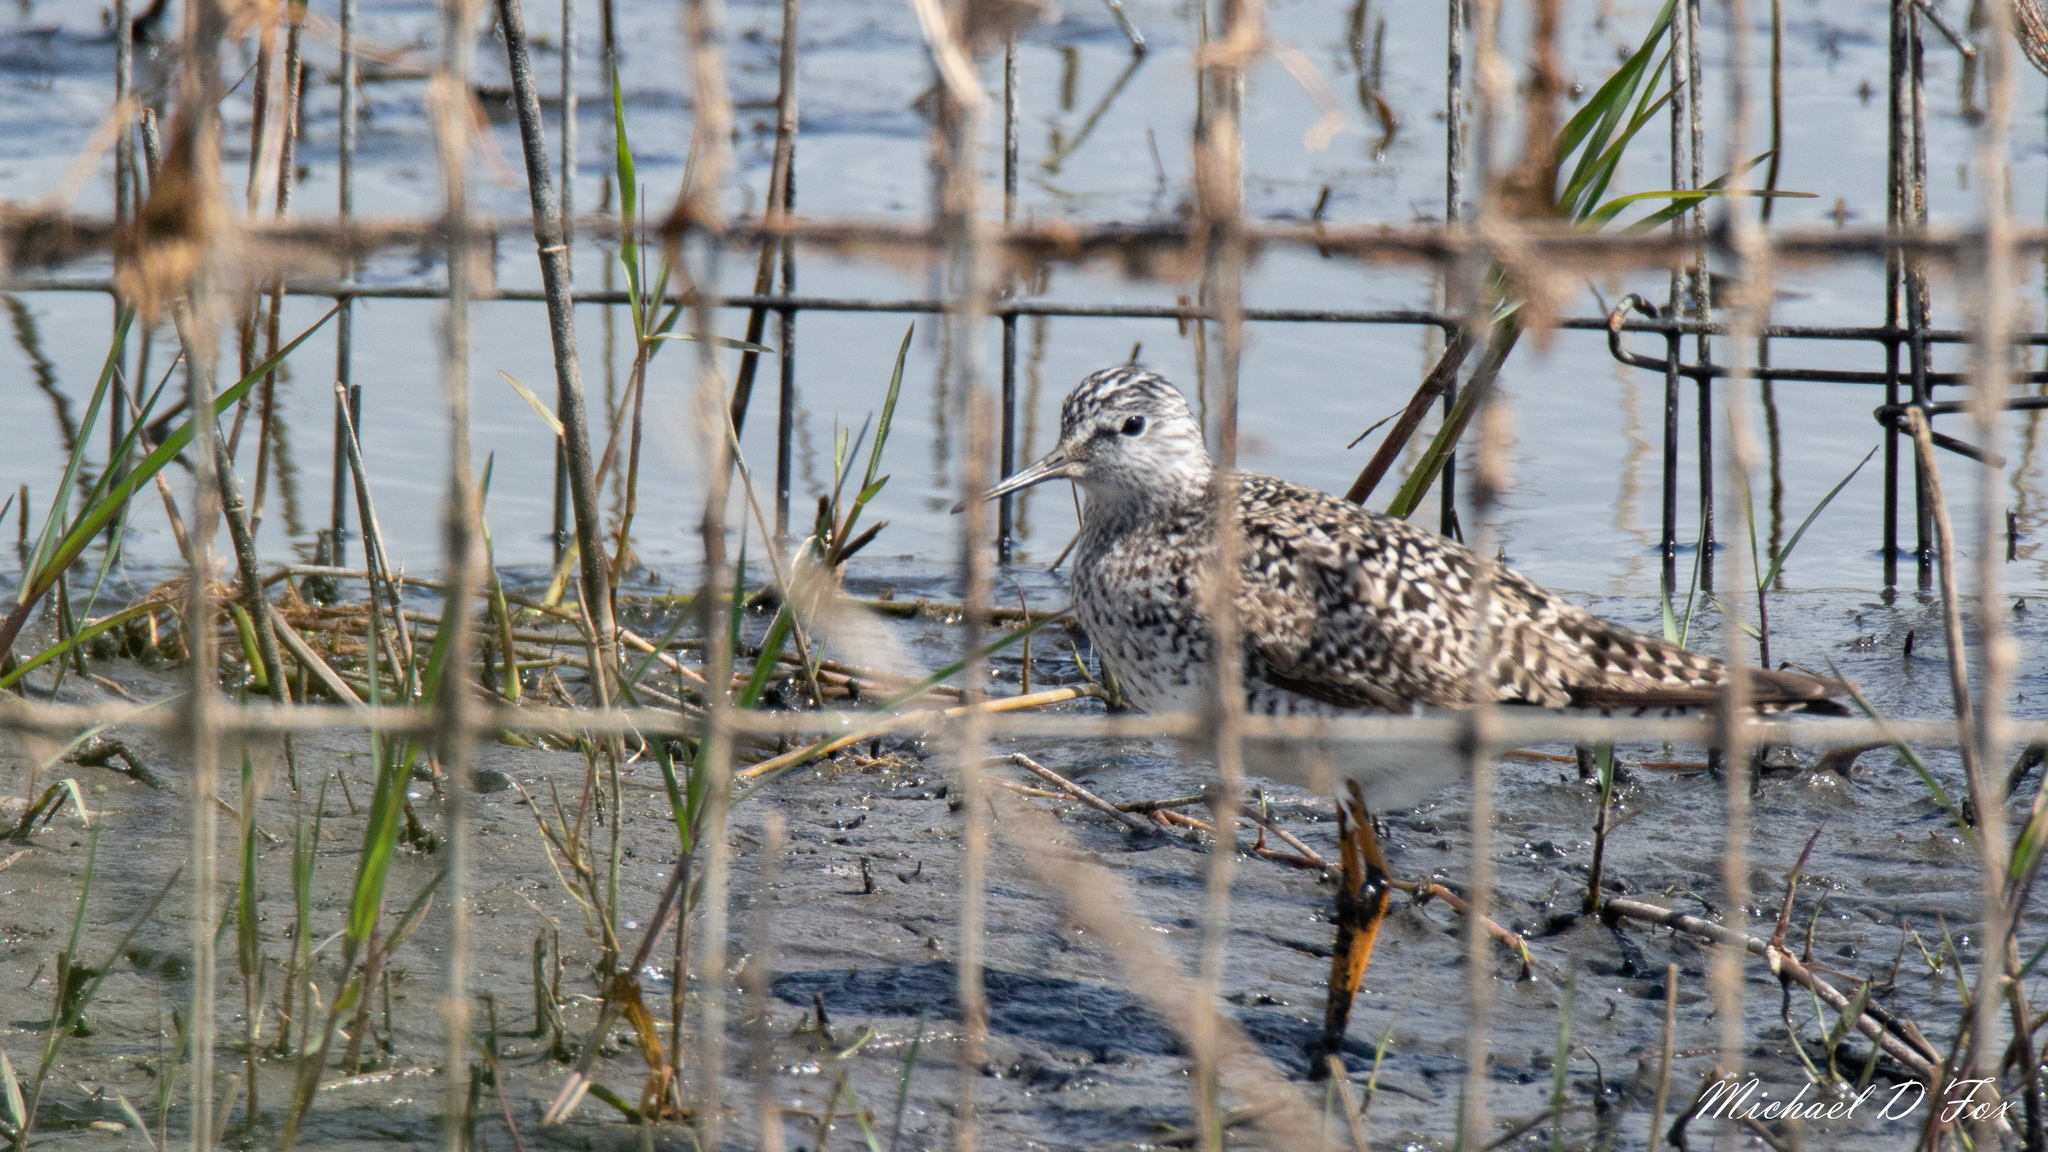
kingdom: Animalia
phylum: Chordata
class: Aves
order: Charadriiformes
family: Scolopacidae
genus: Tringa
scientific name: Tringa melanoleuca
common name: Greater yellowlegs
